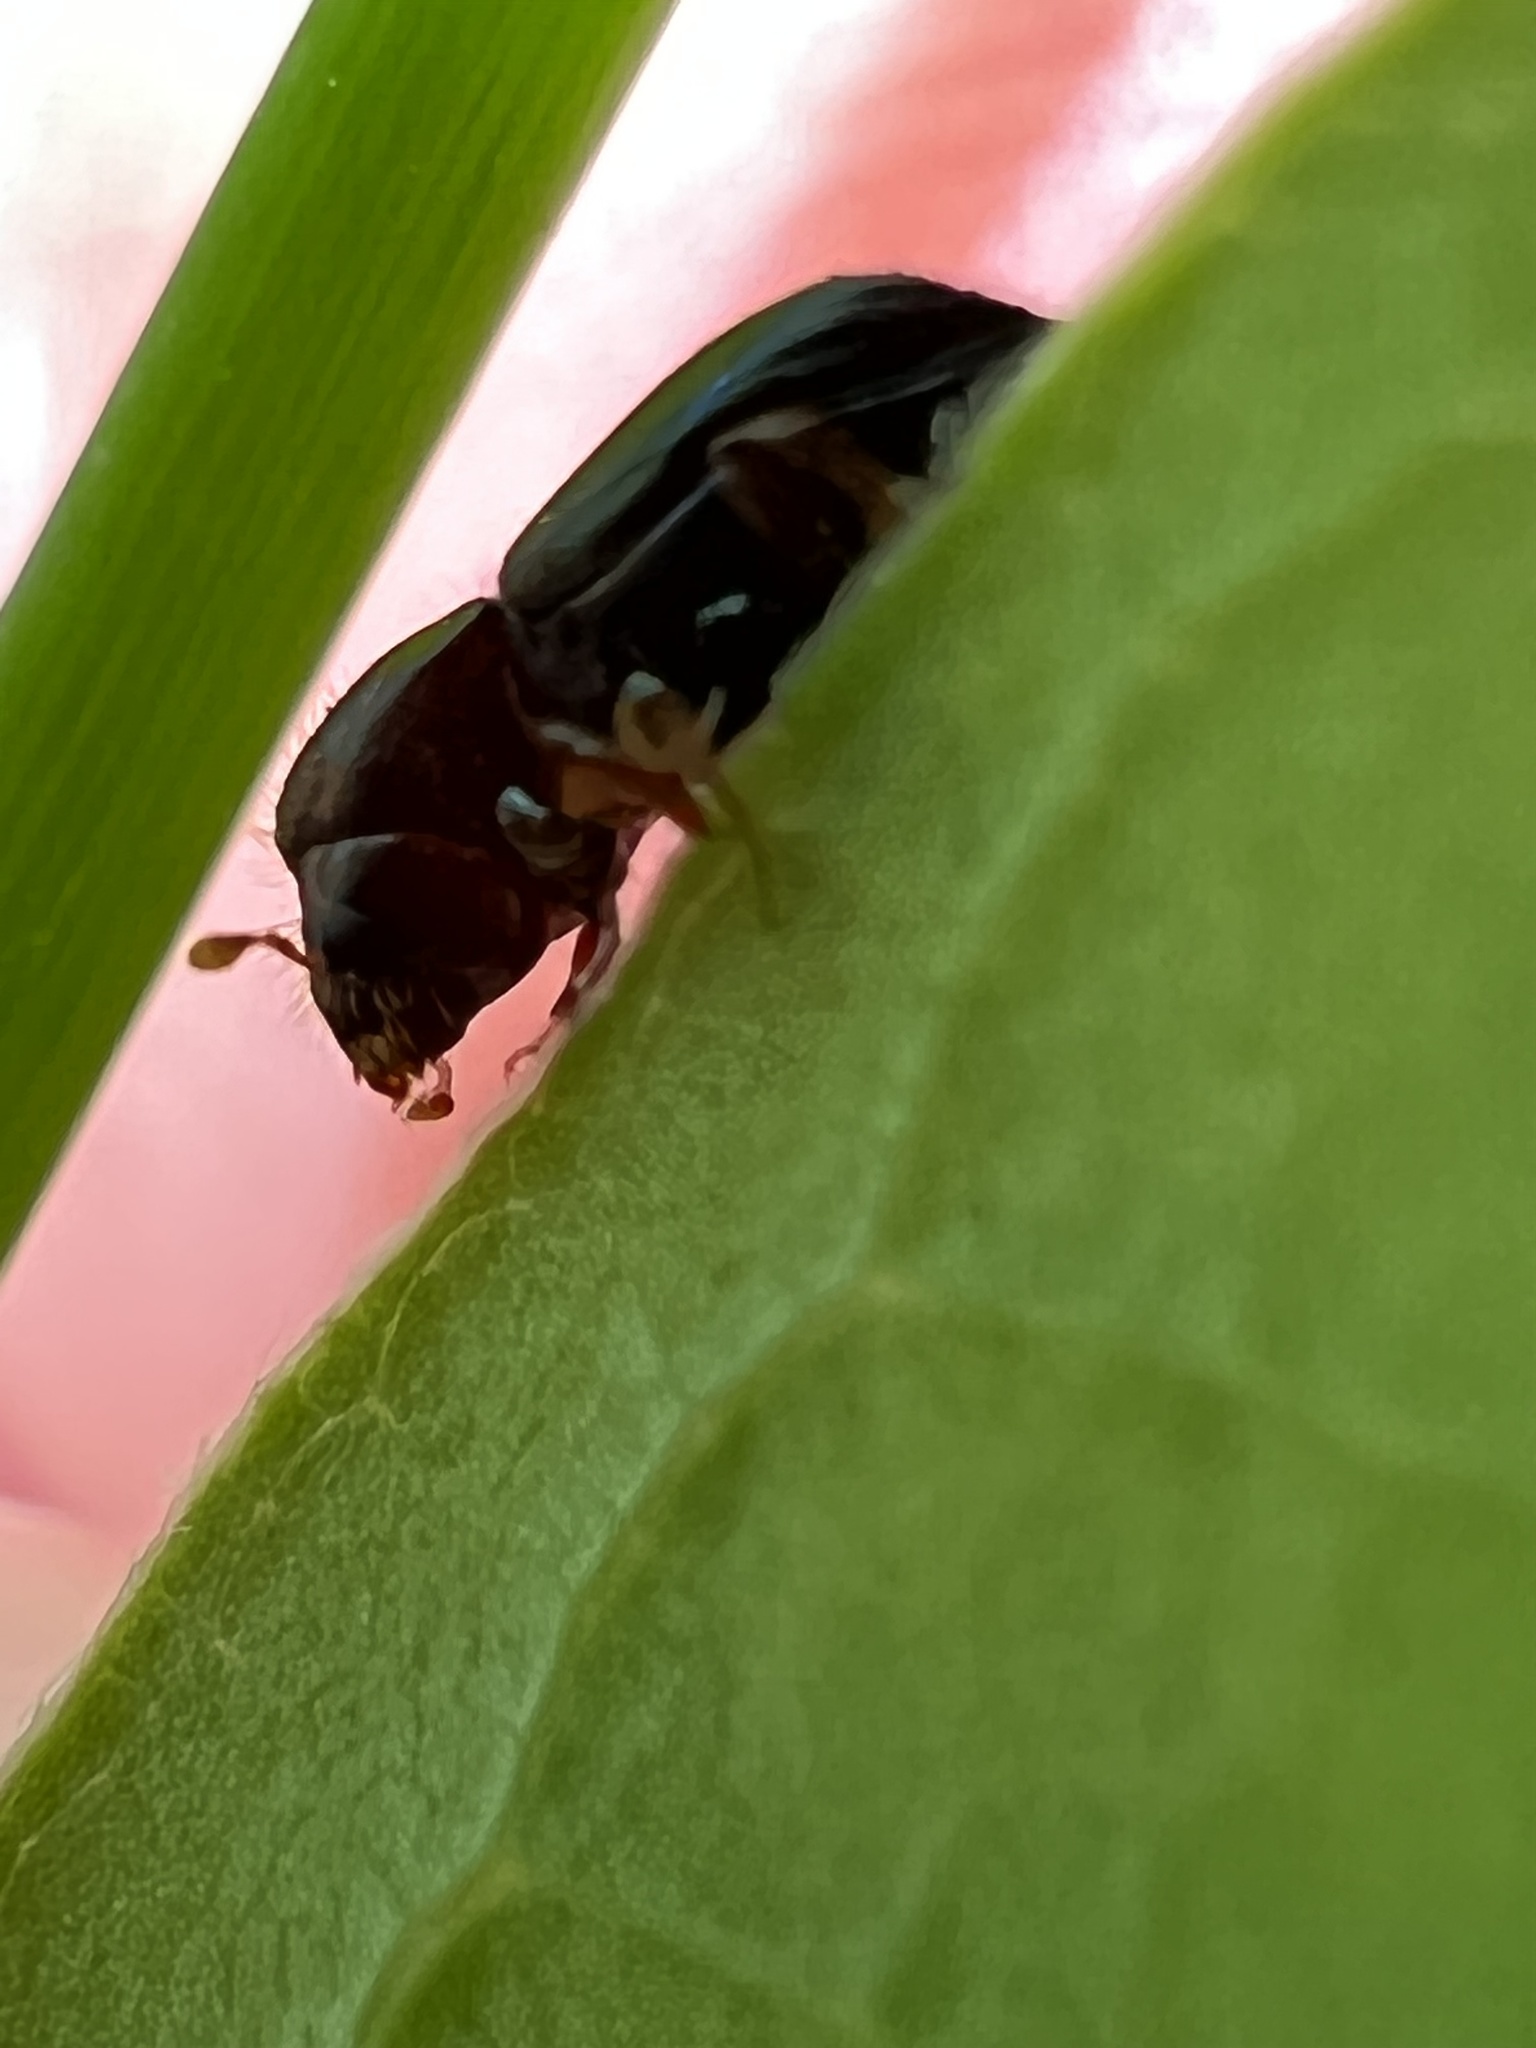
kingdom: Animalia
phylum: Arthropoda
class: Insecta
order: Coleoptera
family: Curculionidae
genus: Euwallacea
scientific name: Euwallacea validus
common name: Bark beetle
